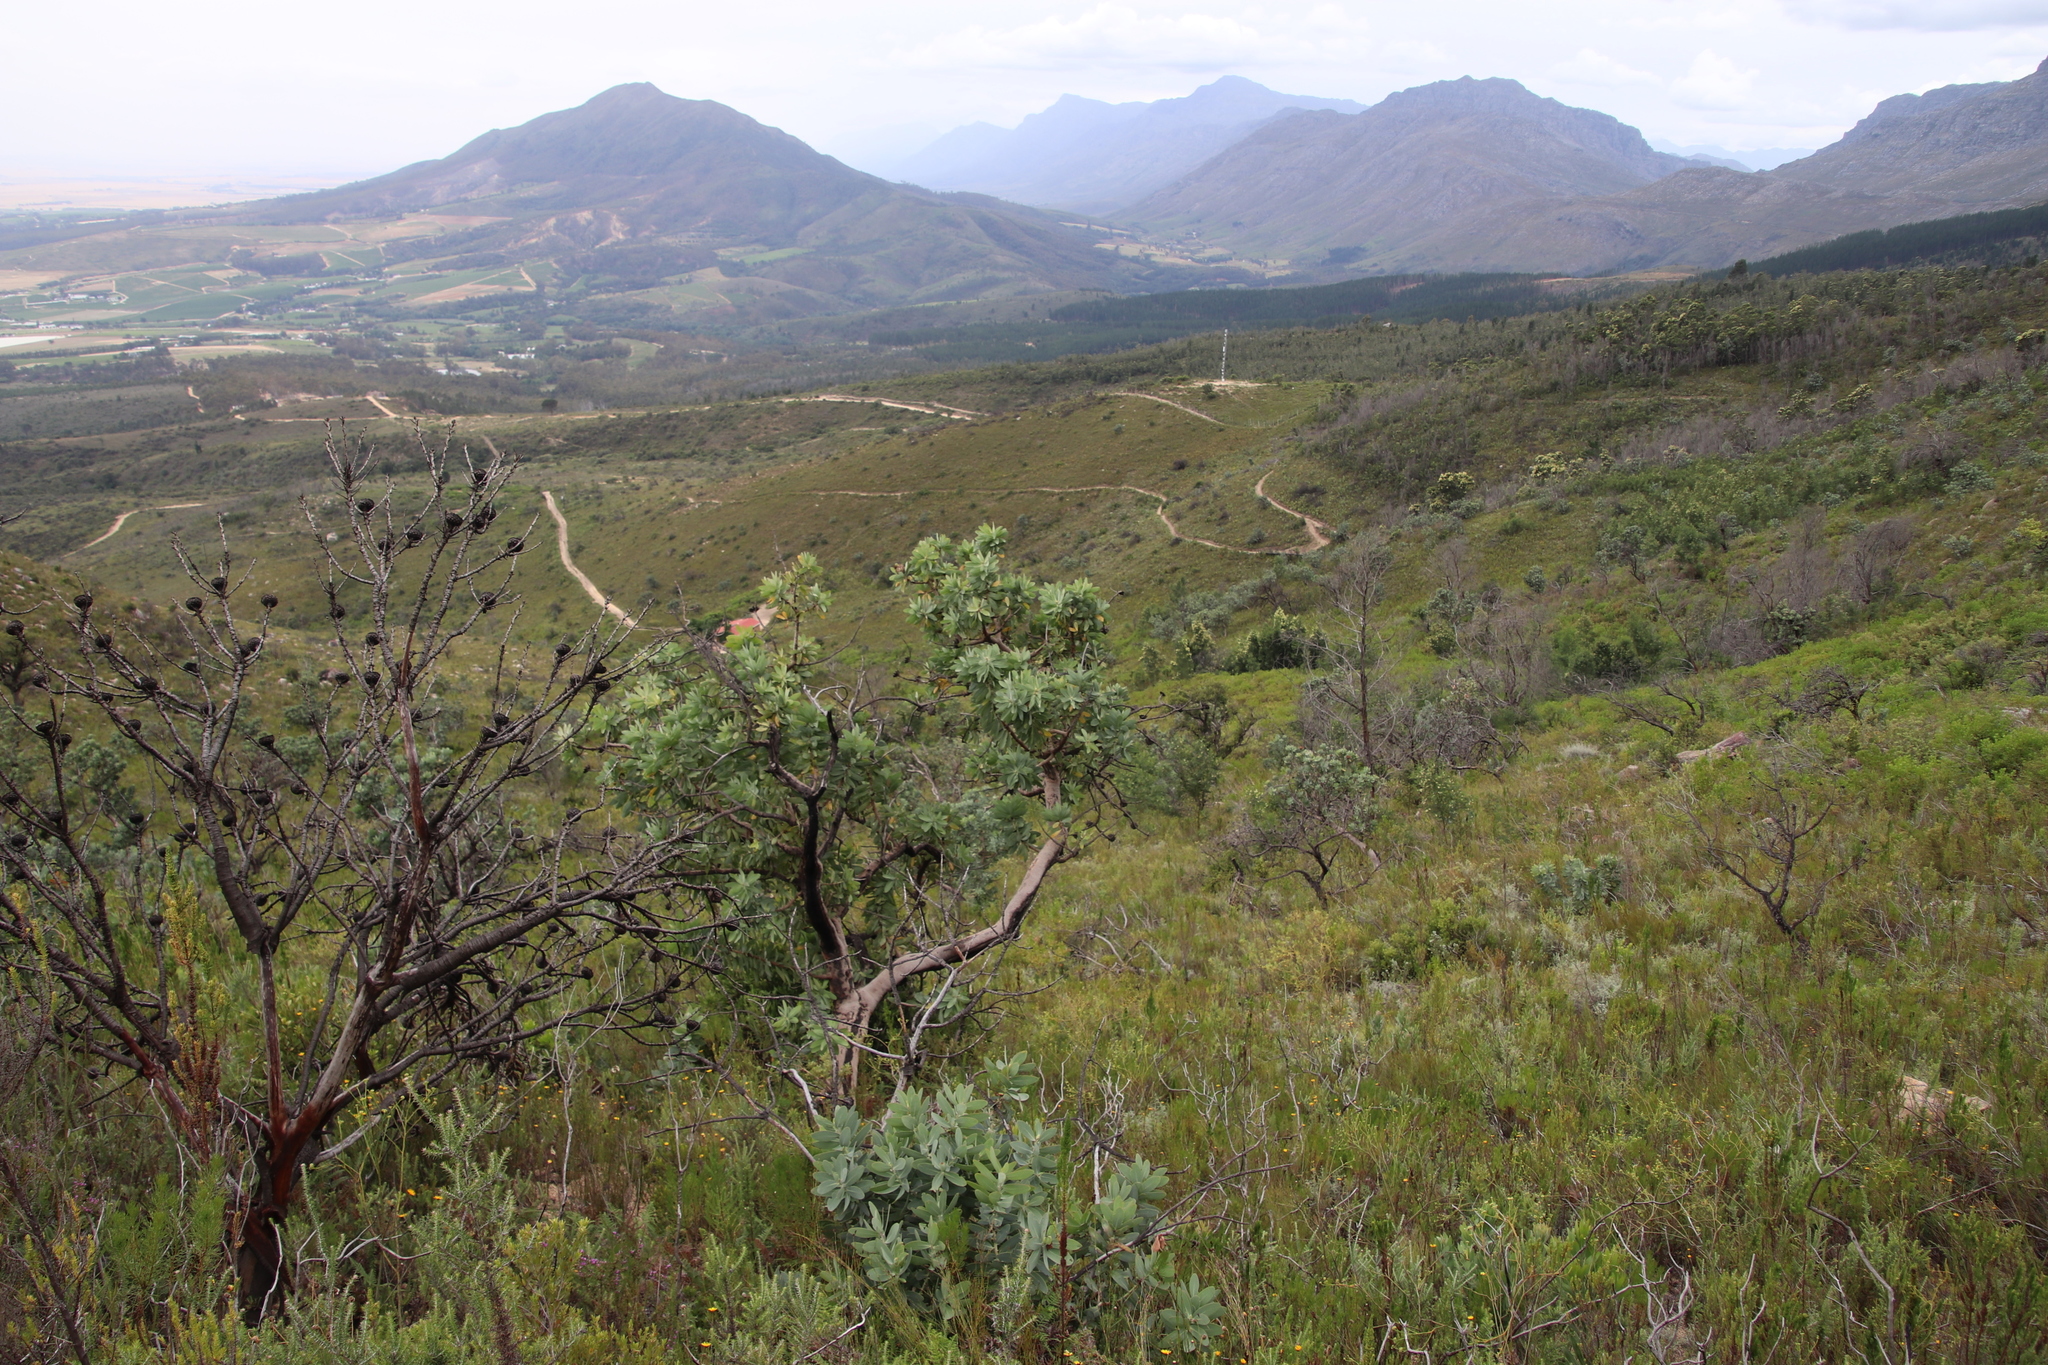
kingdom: Plantae
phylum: Tracheophyta
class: Magnoliopsida
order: Proteales
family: Proteaceae
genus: Protea
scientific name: Protea nitida
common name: Tree protea
